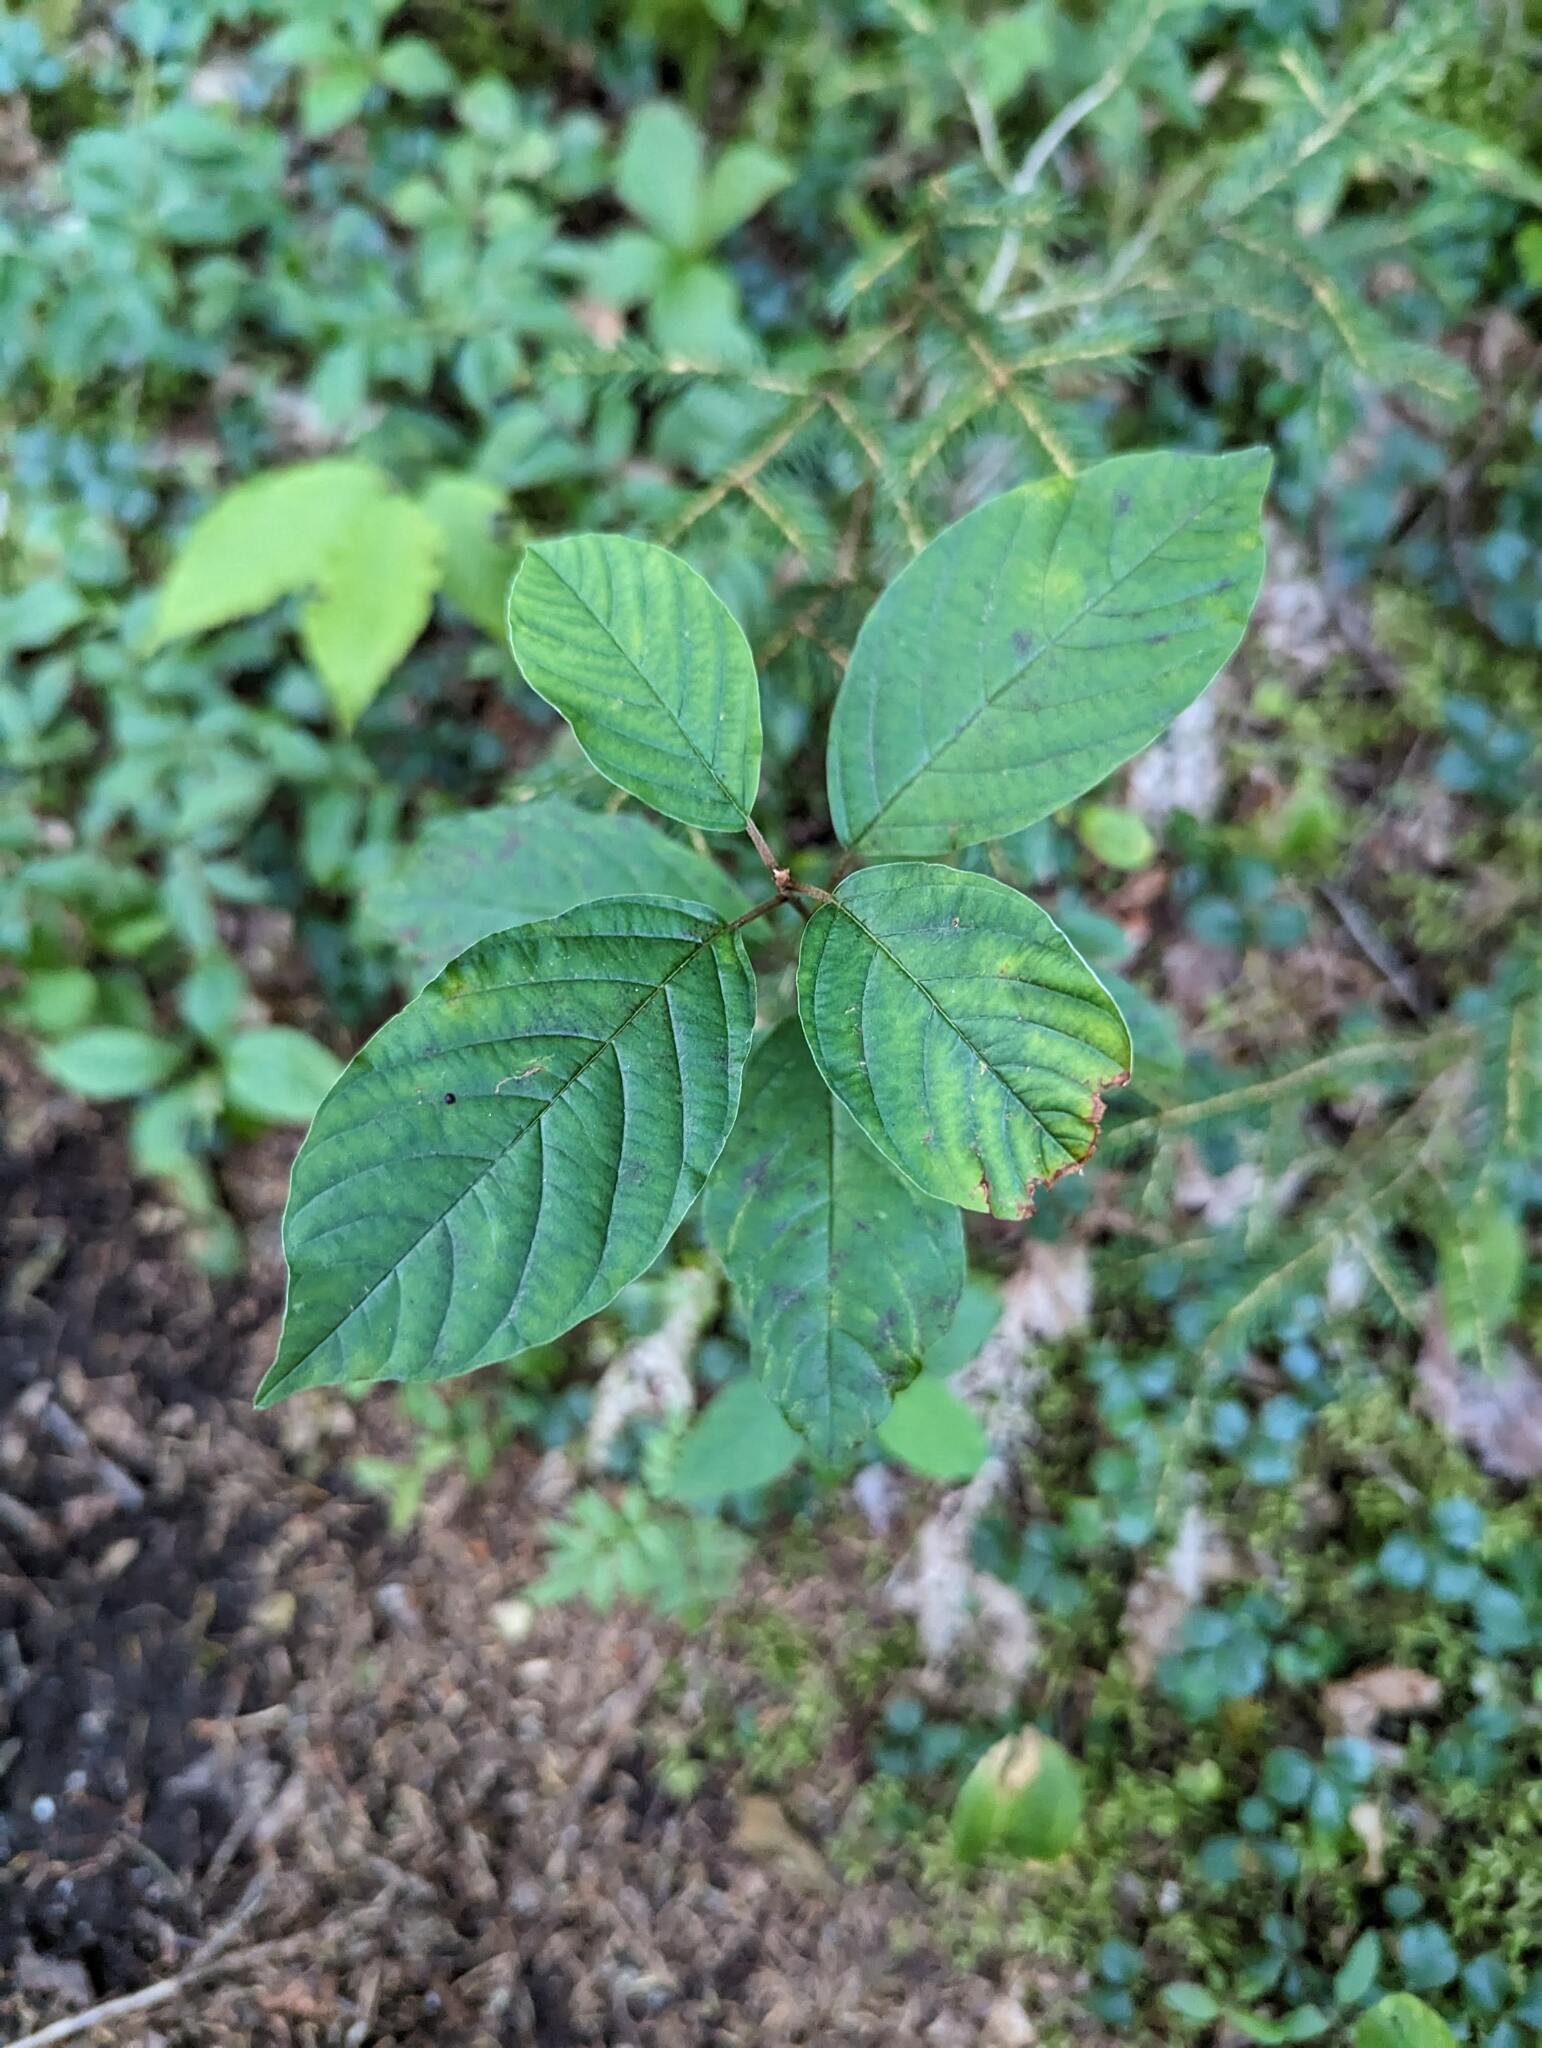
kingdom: Plantae
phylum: Tracheophyta
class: Magnoliopsida
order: Rosales
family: Rhamnaceae
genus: Frangula
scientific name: Frangula alnus
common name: Alder buckthorn
